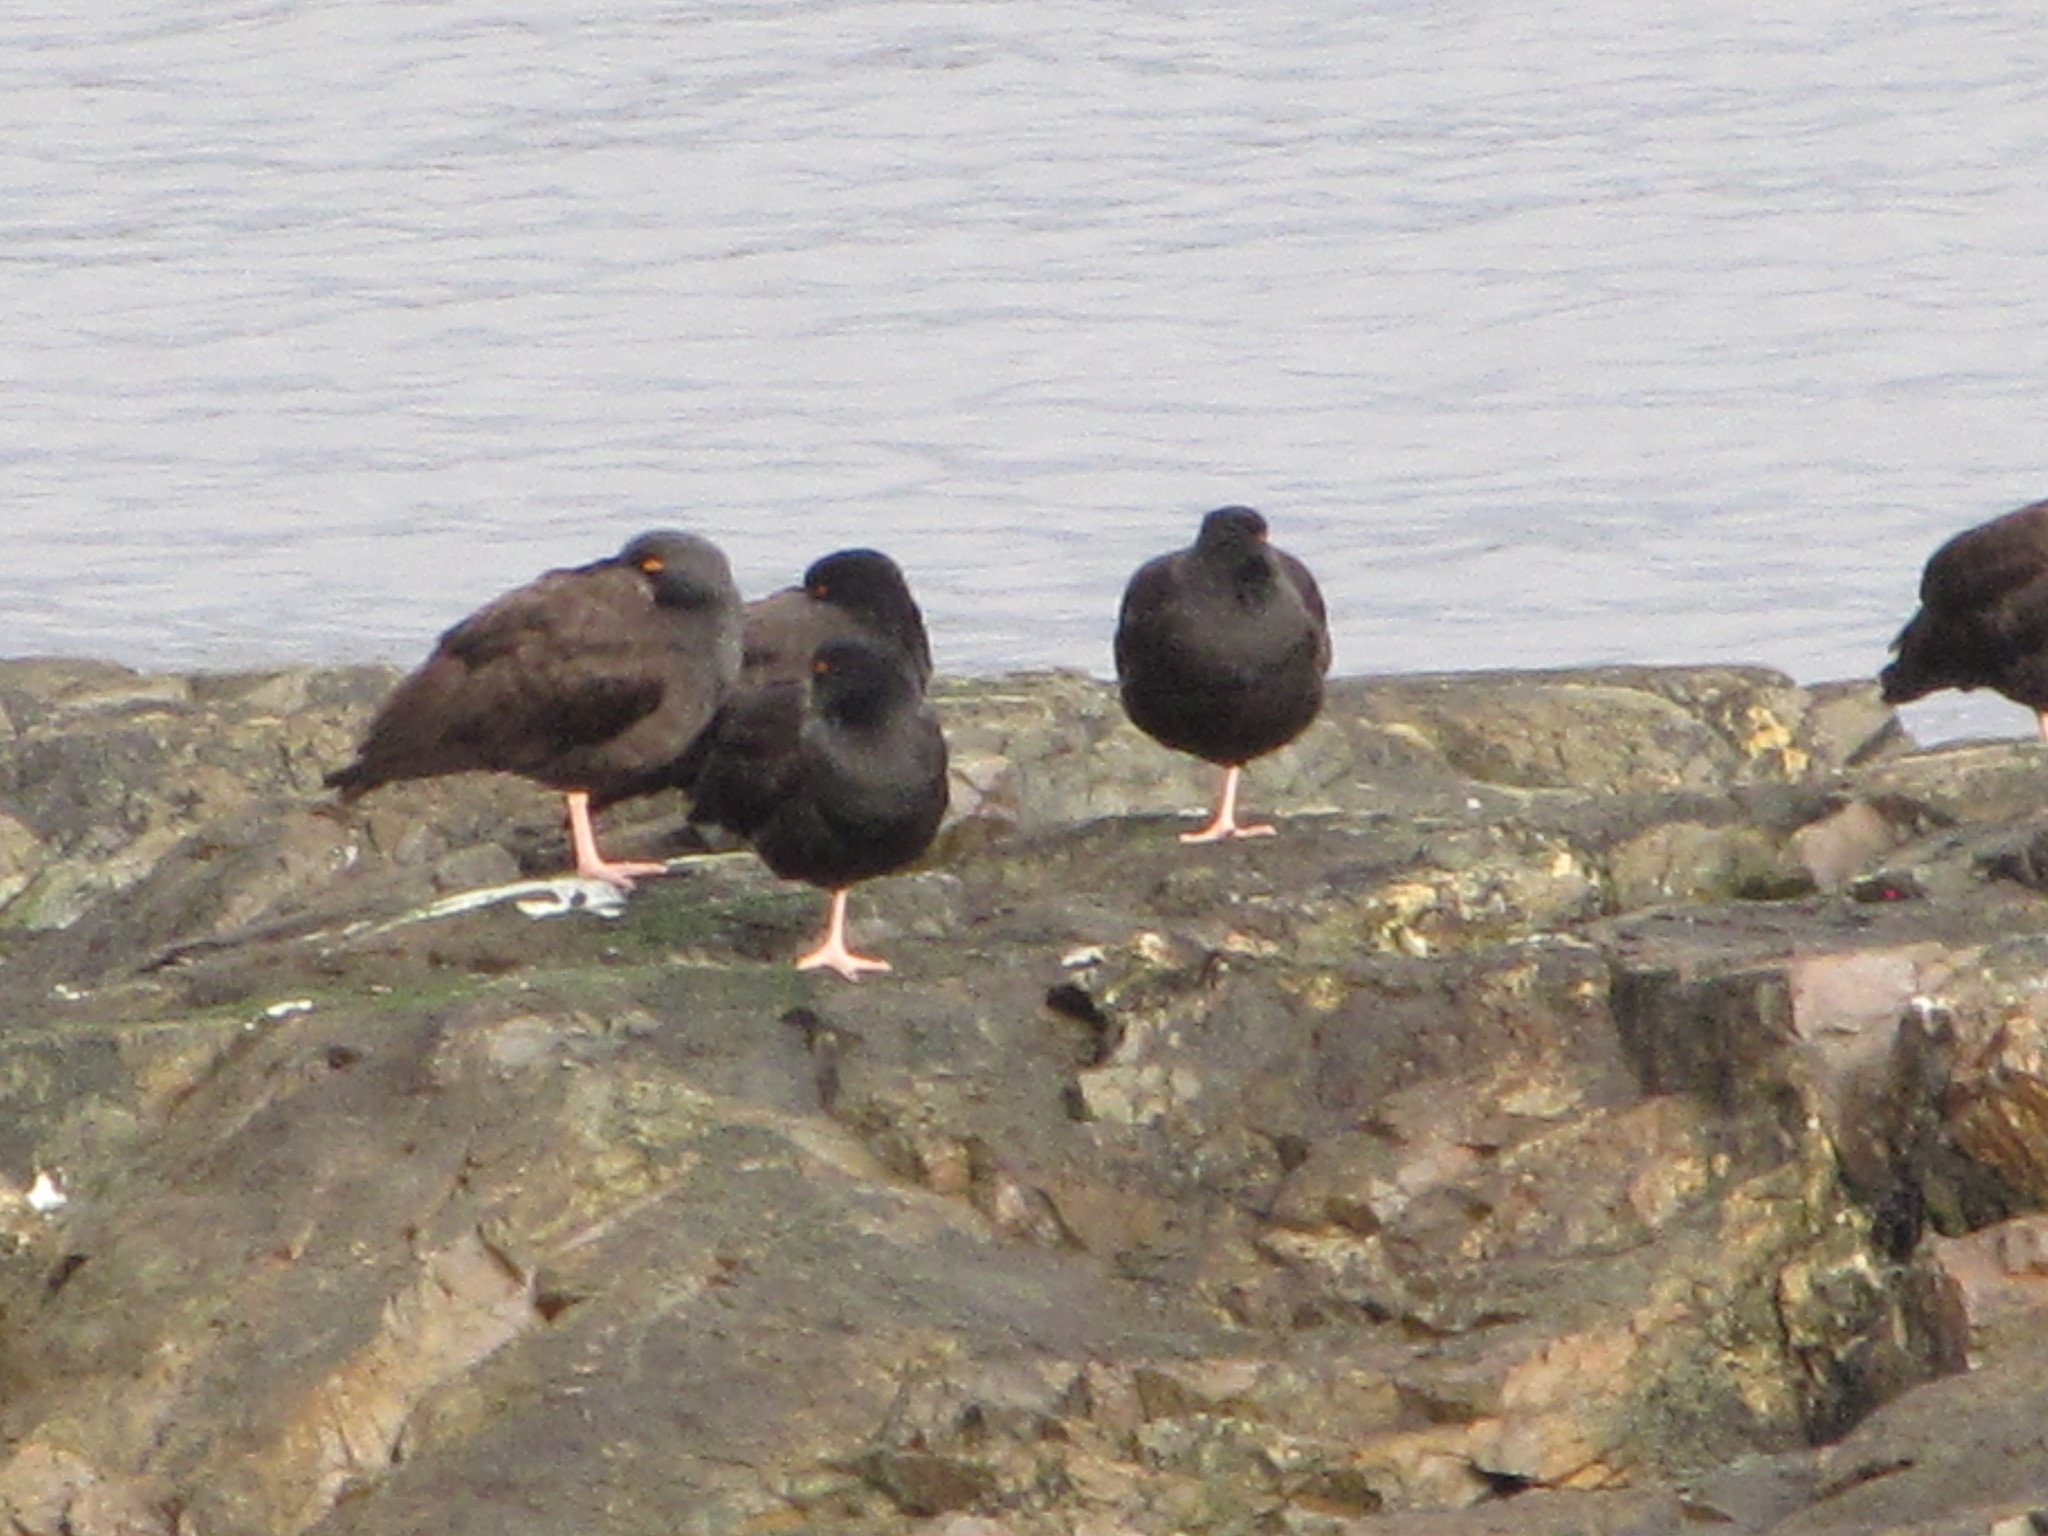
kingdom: Animalia
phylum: Chordata
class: Aves
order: Charadriiformes
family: Haematopodidae
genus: Haematopus
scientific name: Haematopus bachmani
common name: Black oystercatcher
